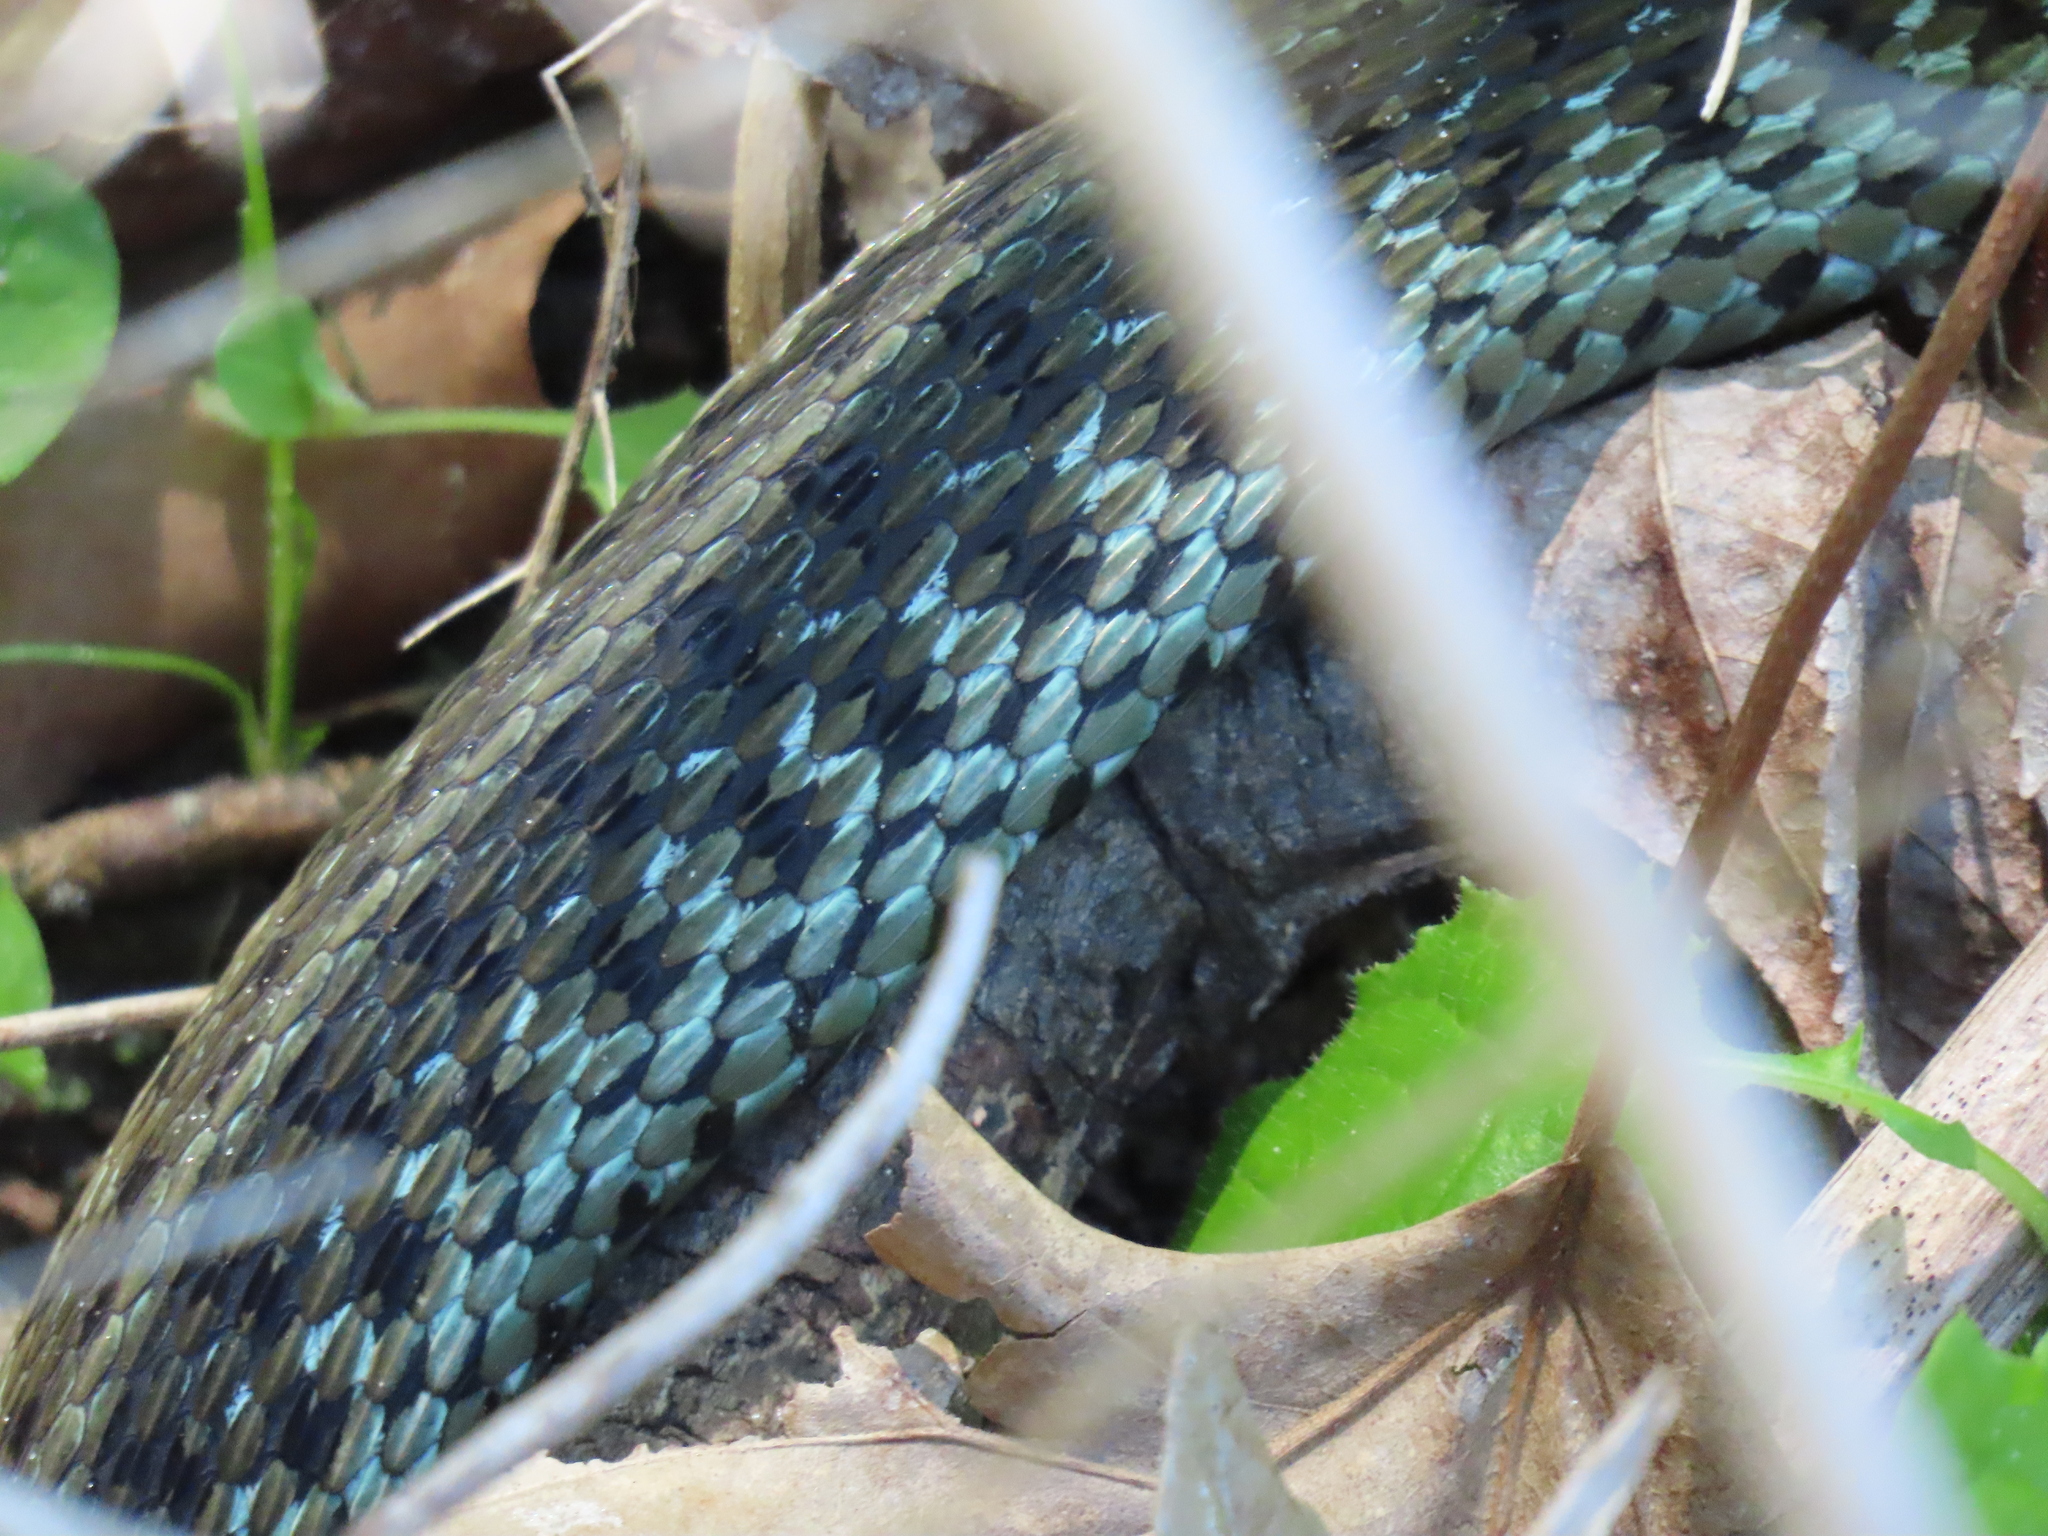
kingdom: Animalia
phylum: Chordata
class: Squamata
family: Colubridae
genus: Thamnophis
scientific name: Thamnophis sirtalis
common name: Common garter snake
